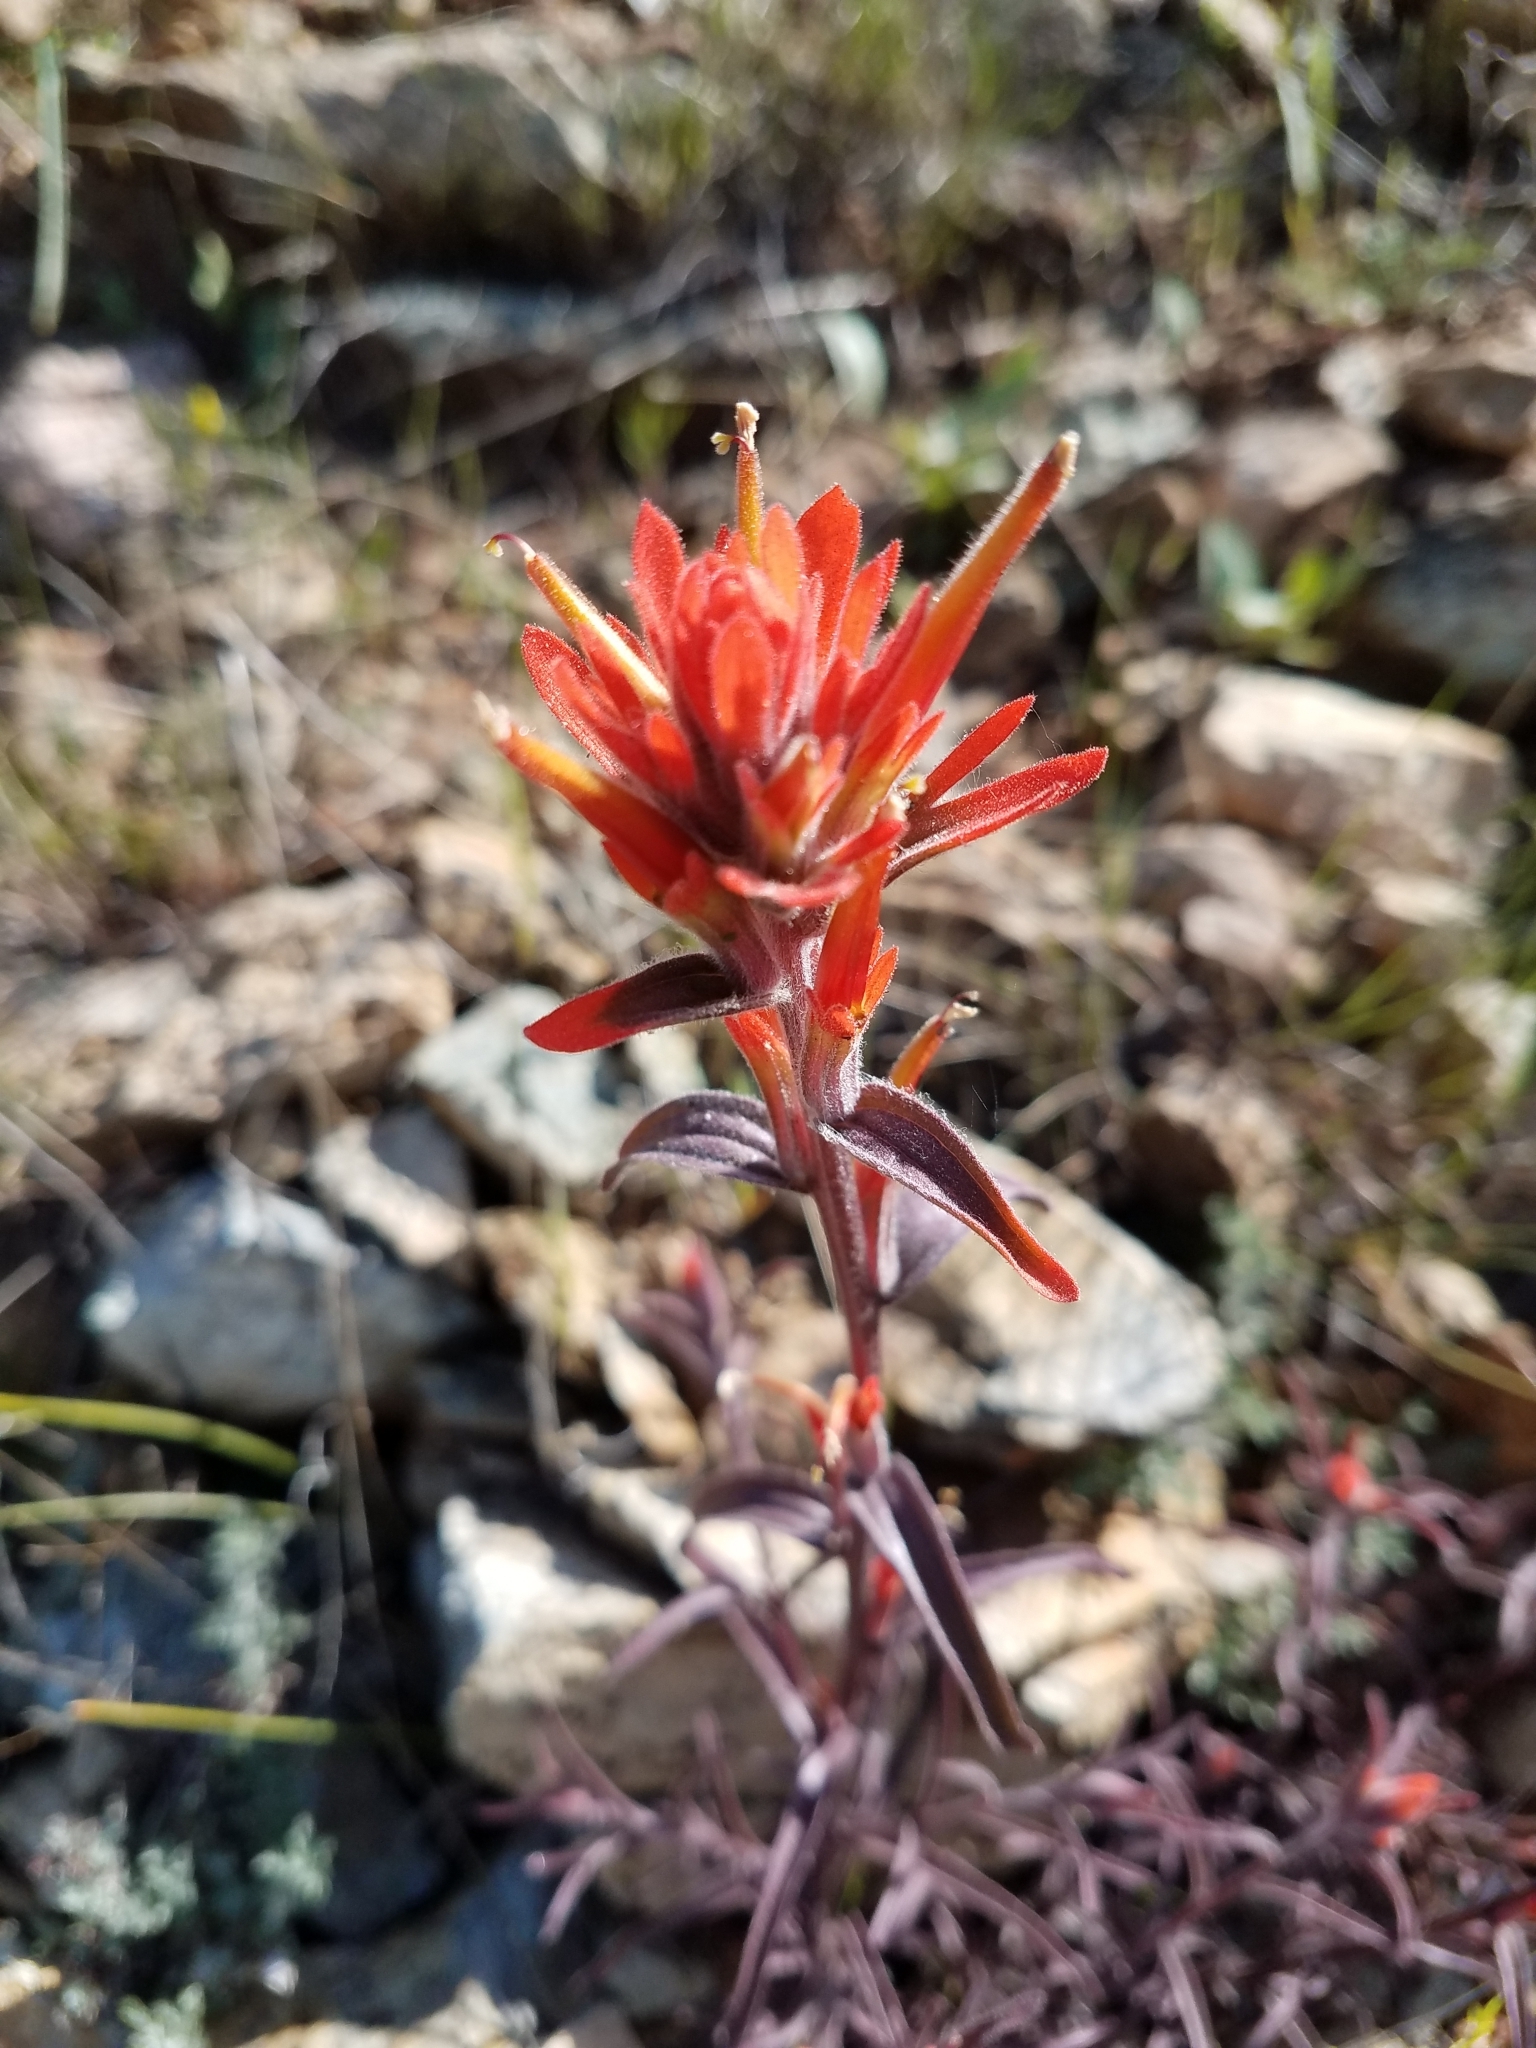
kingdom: Plantae
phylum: Tracheophyta
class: Magnoliopsida
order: Lamiales
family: Orobanchaceae
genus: Castilleja
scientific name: Castilleja pruinosa
